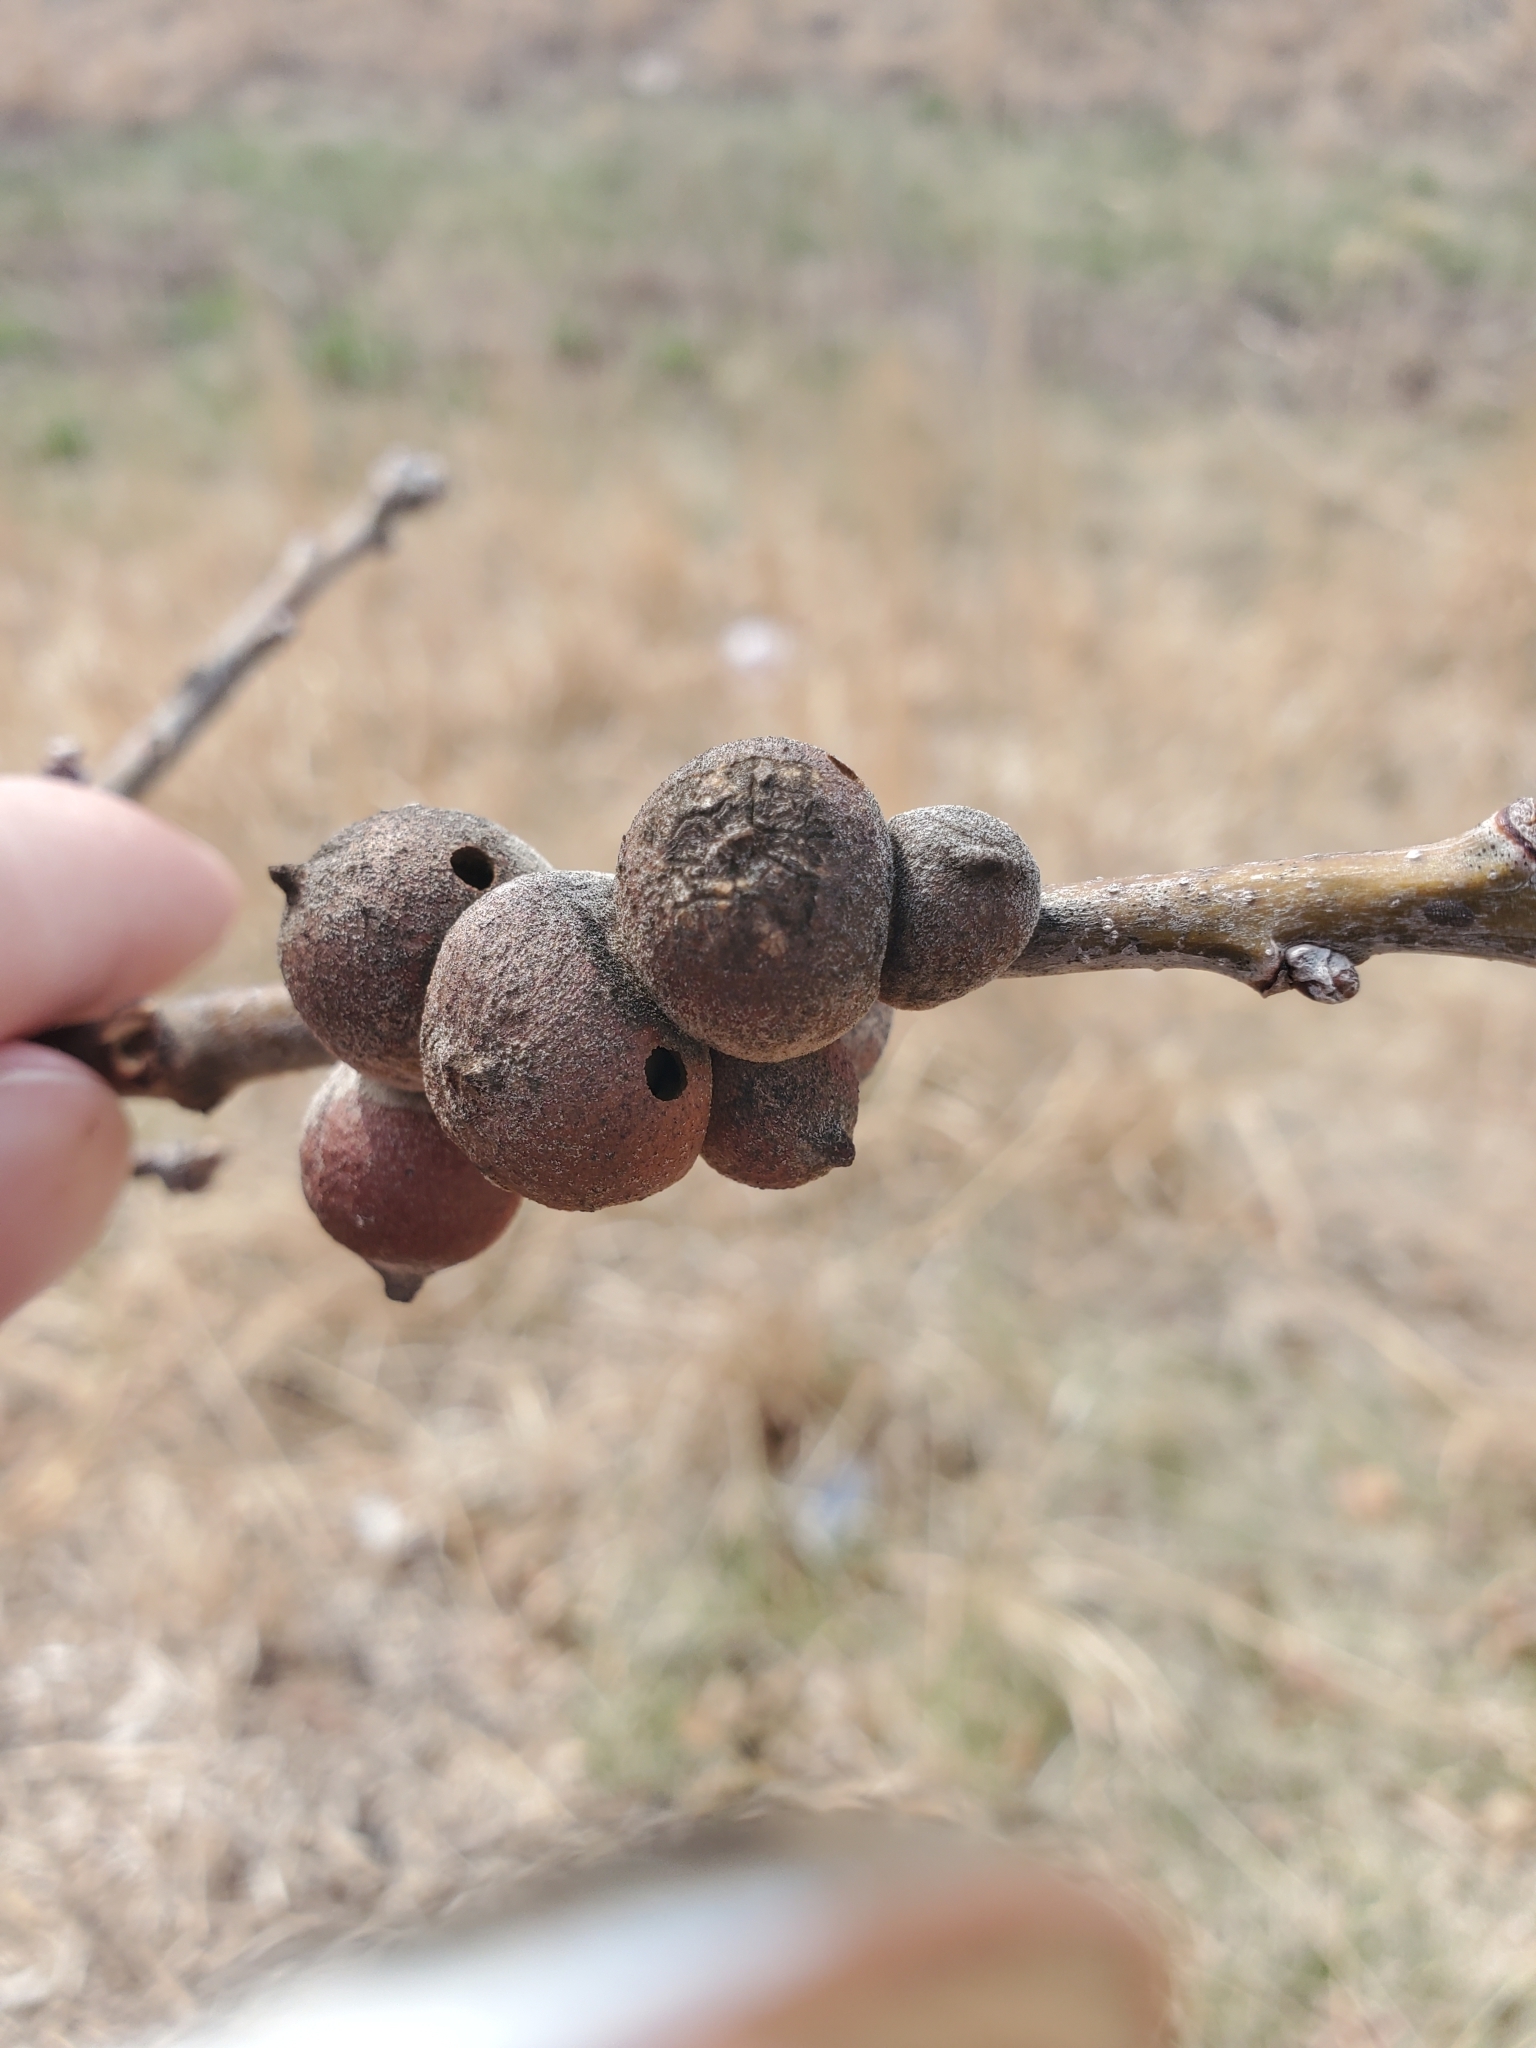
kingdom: Animalia
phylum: Arthropoda
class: Insecta
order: Hymenoptera
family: Cynipidae
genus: Disholcaspis
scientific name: Disholcaspis
